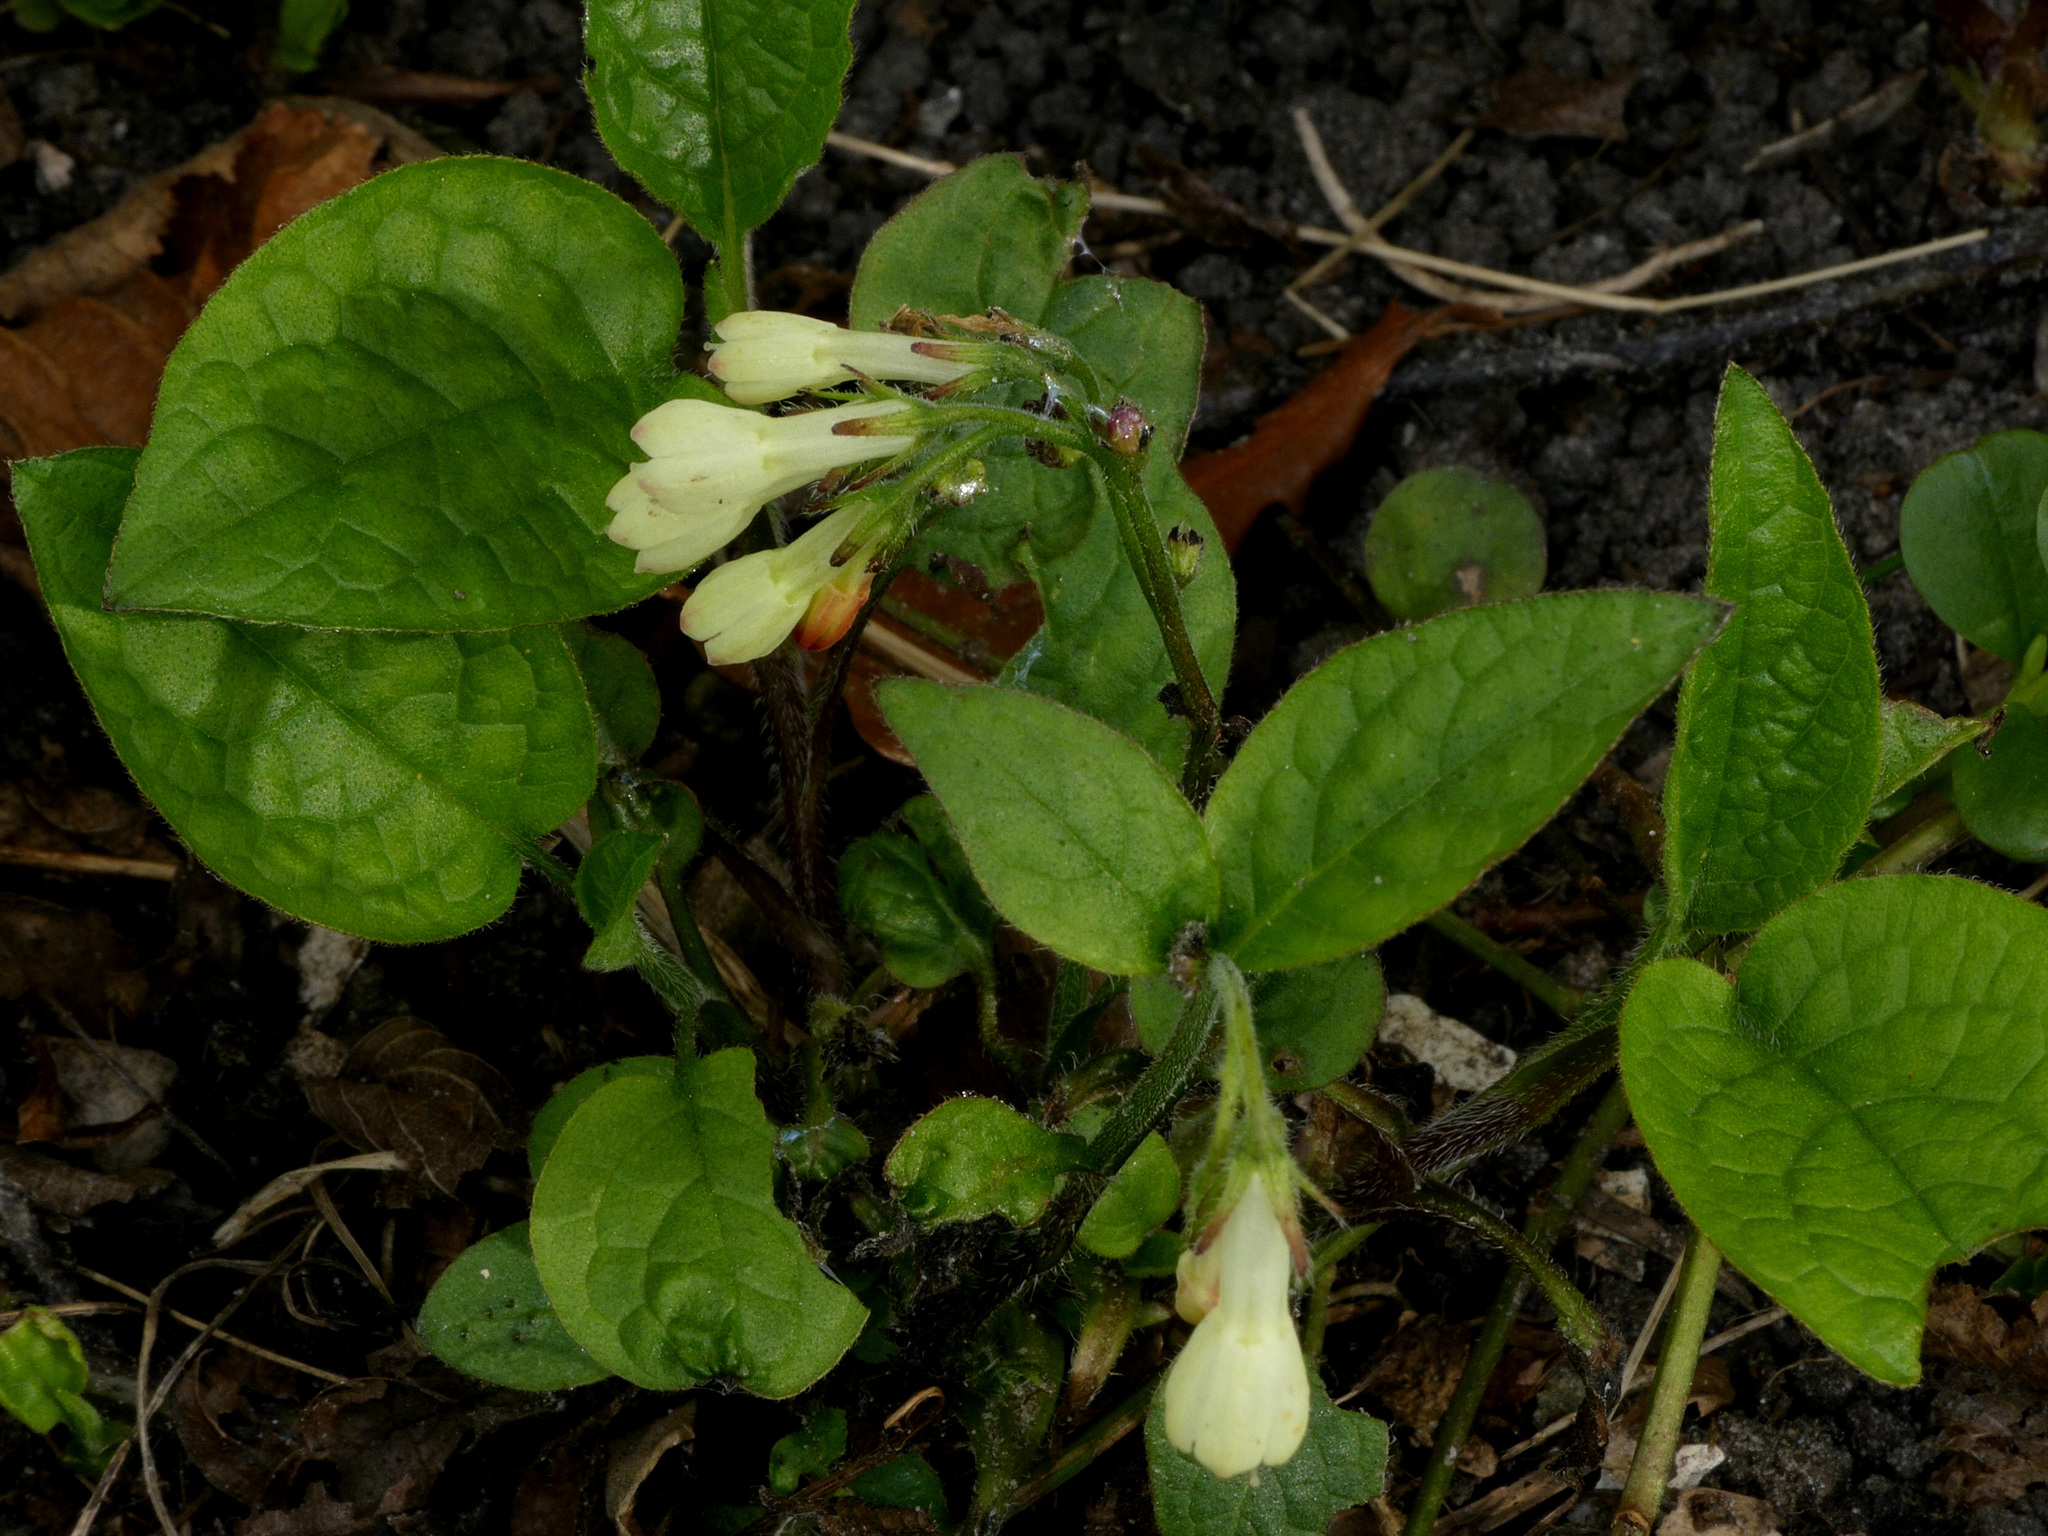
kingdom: Plantae
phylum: Tracheophyta
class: Magnoliopsida
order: Boraginales
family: Boraginaceae
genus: Symphytum
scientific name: Symphytum grandiflorum
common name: Creeping comfrey
